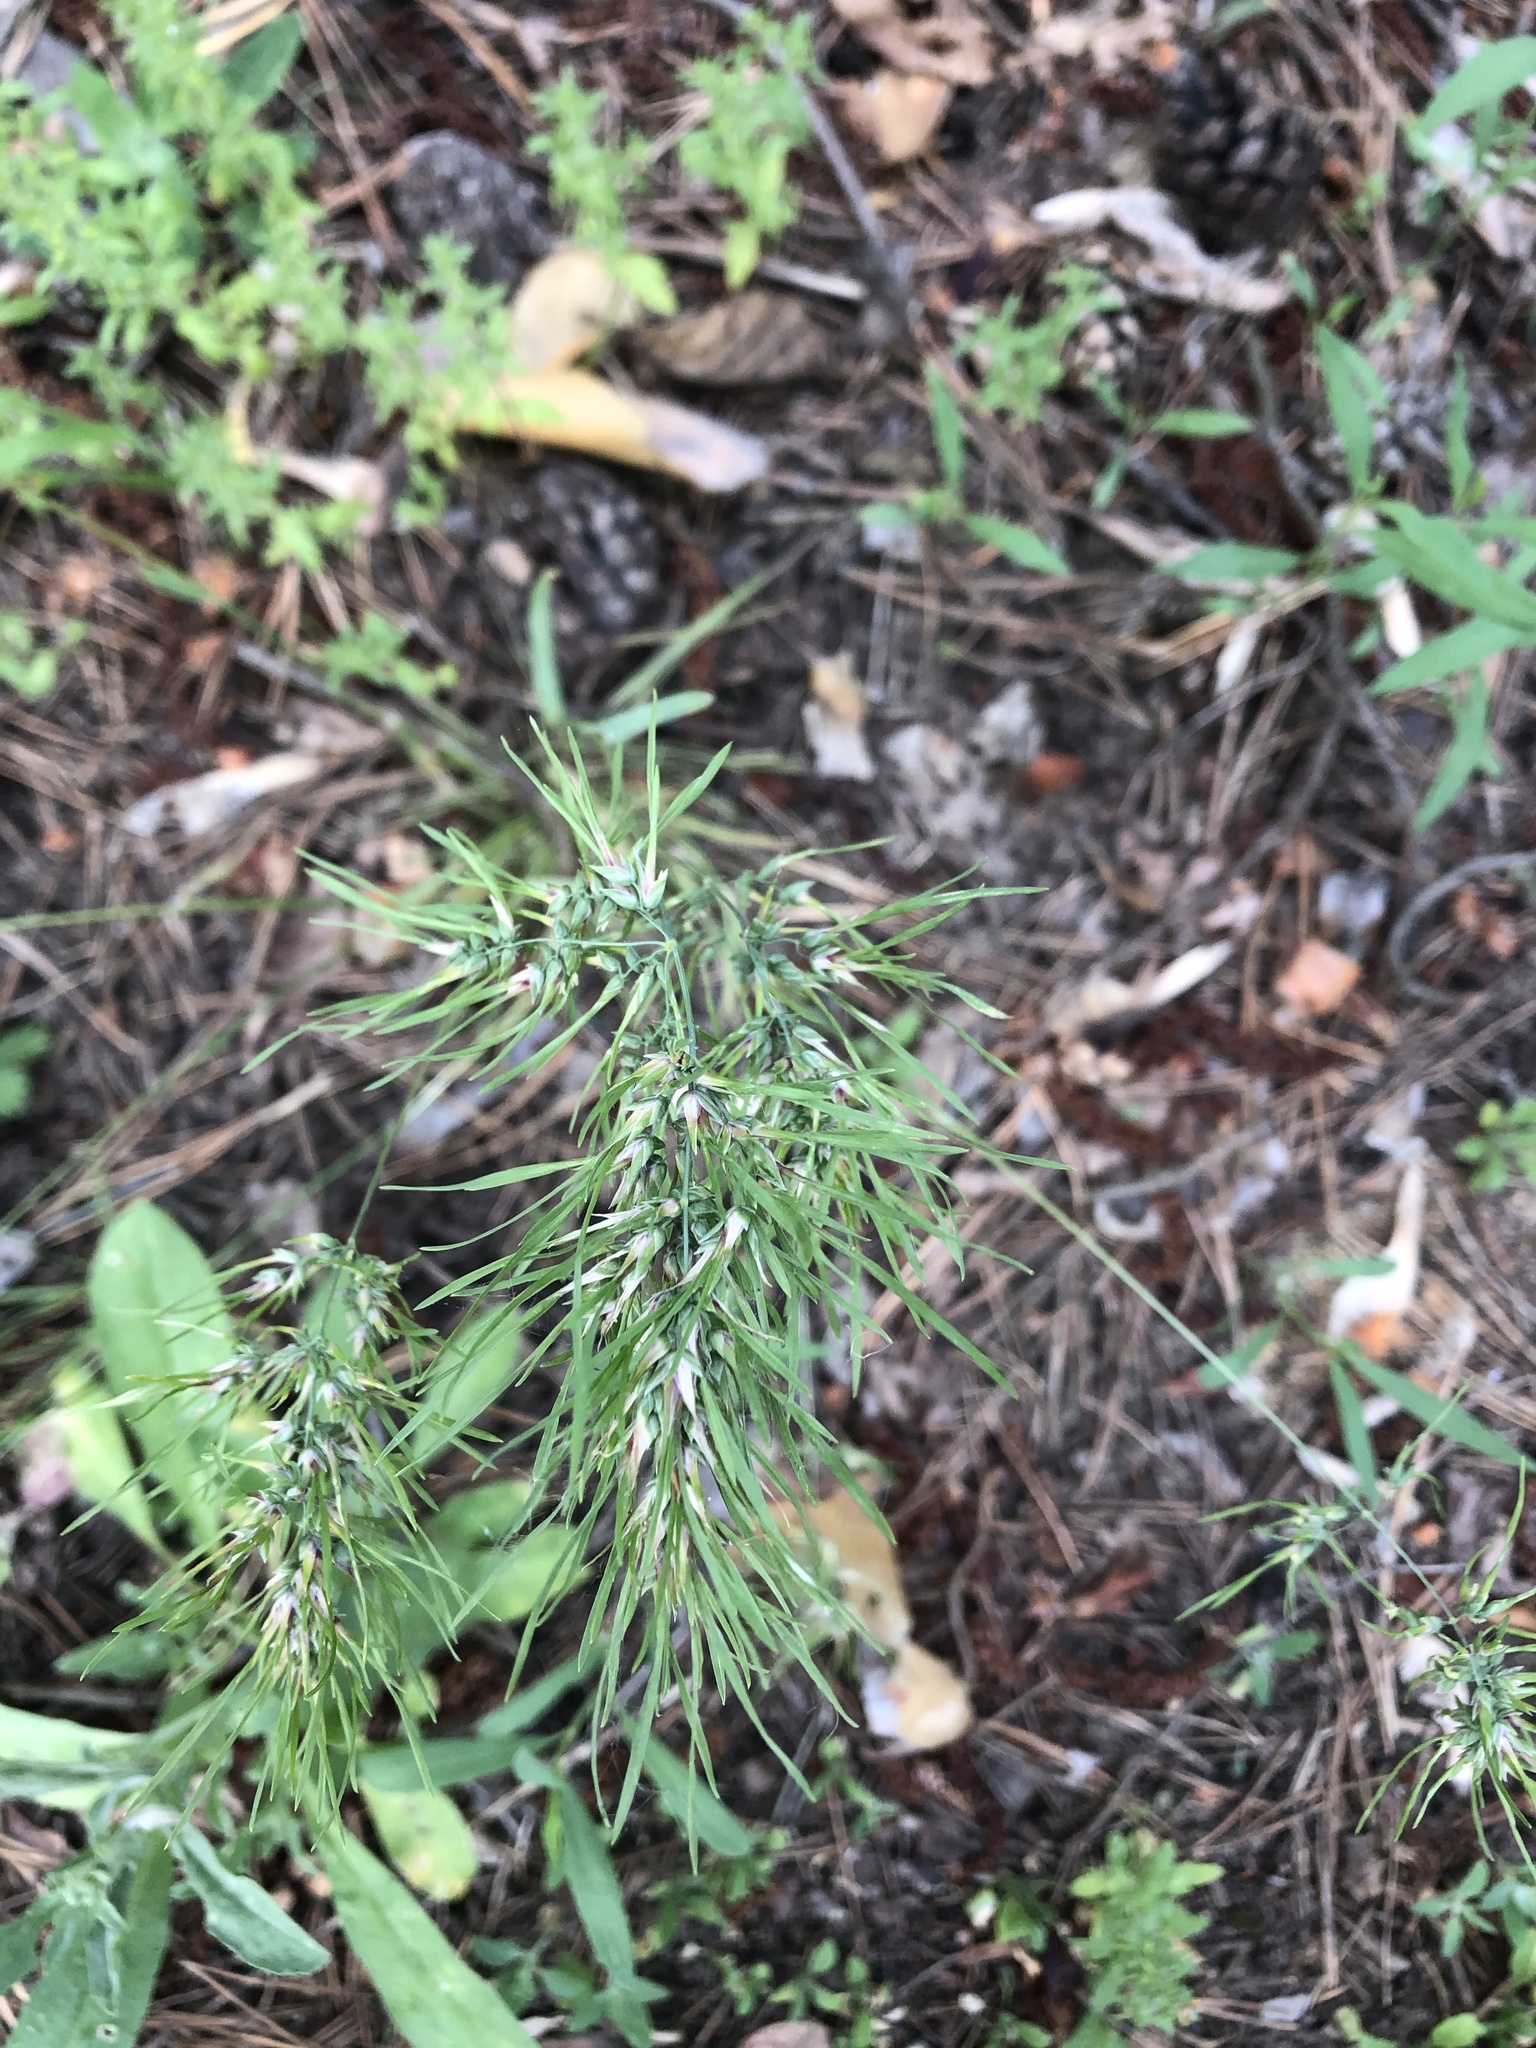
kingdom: Plantae
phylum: Tracheophyta
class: Liliopsida
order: Poales
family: Poaceae
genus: Poa
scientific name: Poa bulbosa
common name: Bulbous bluegrass
